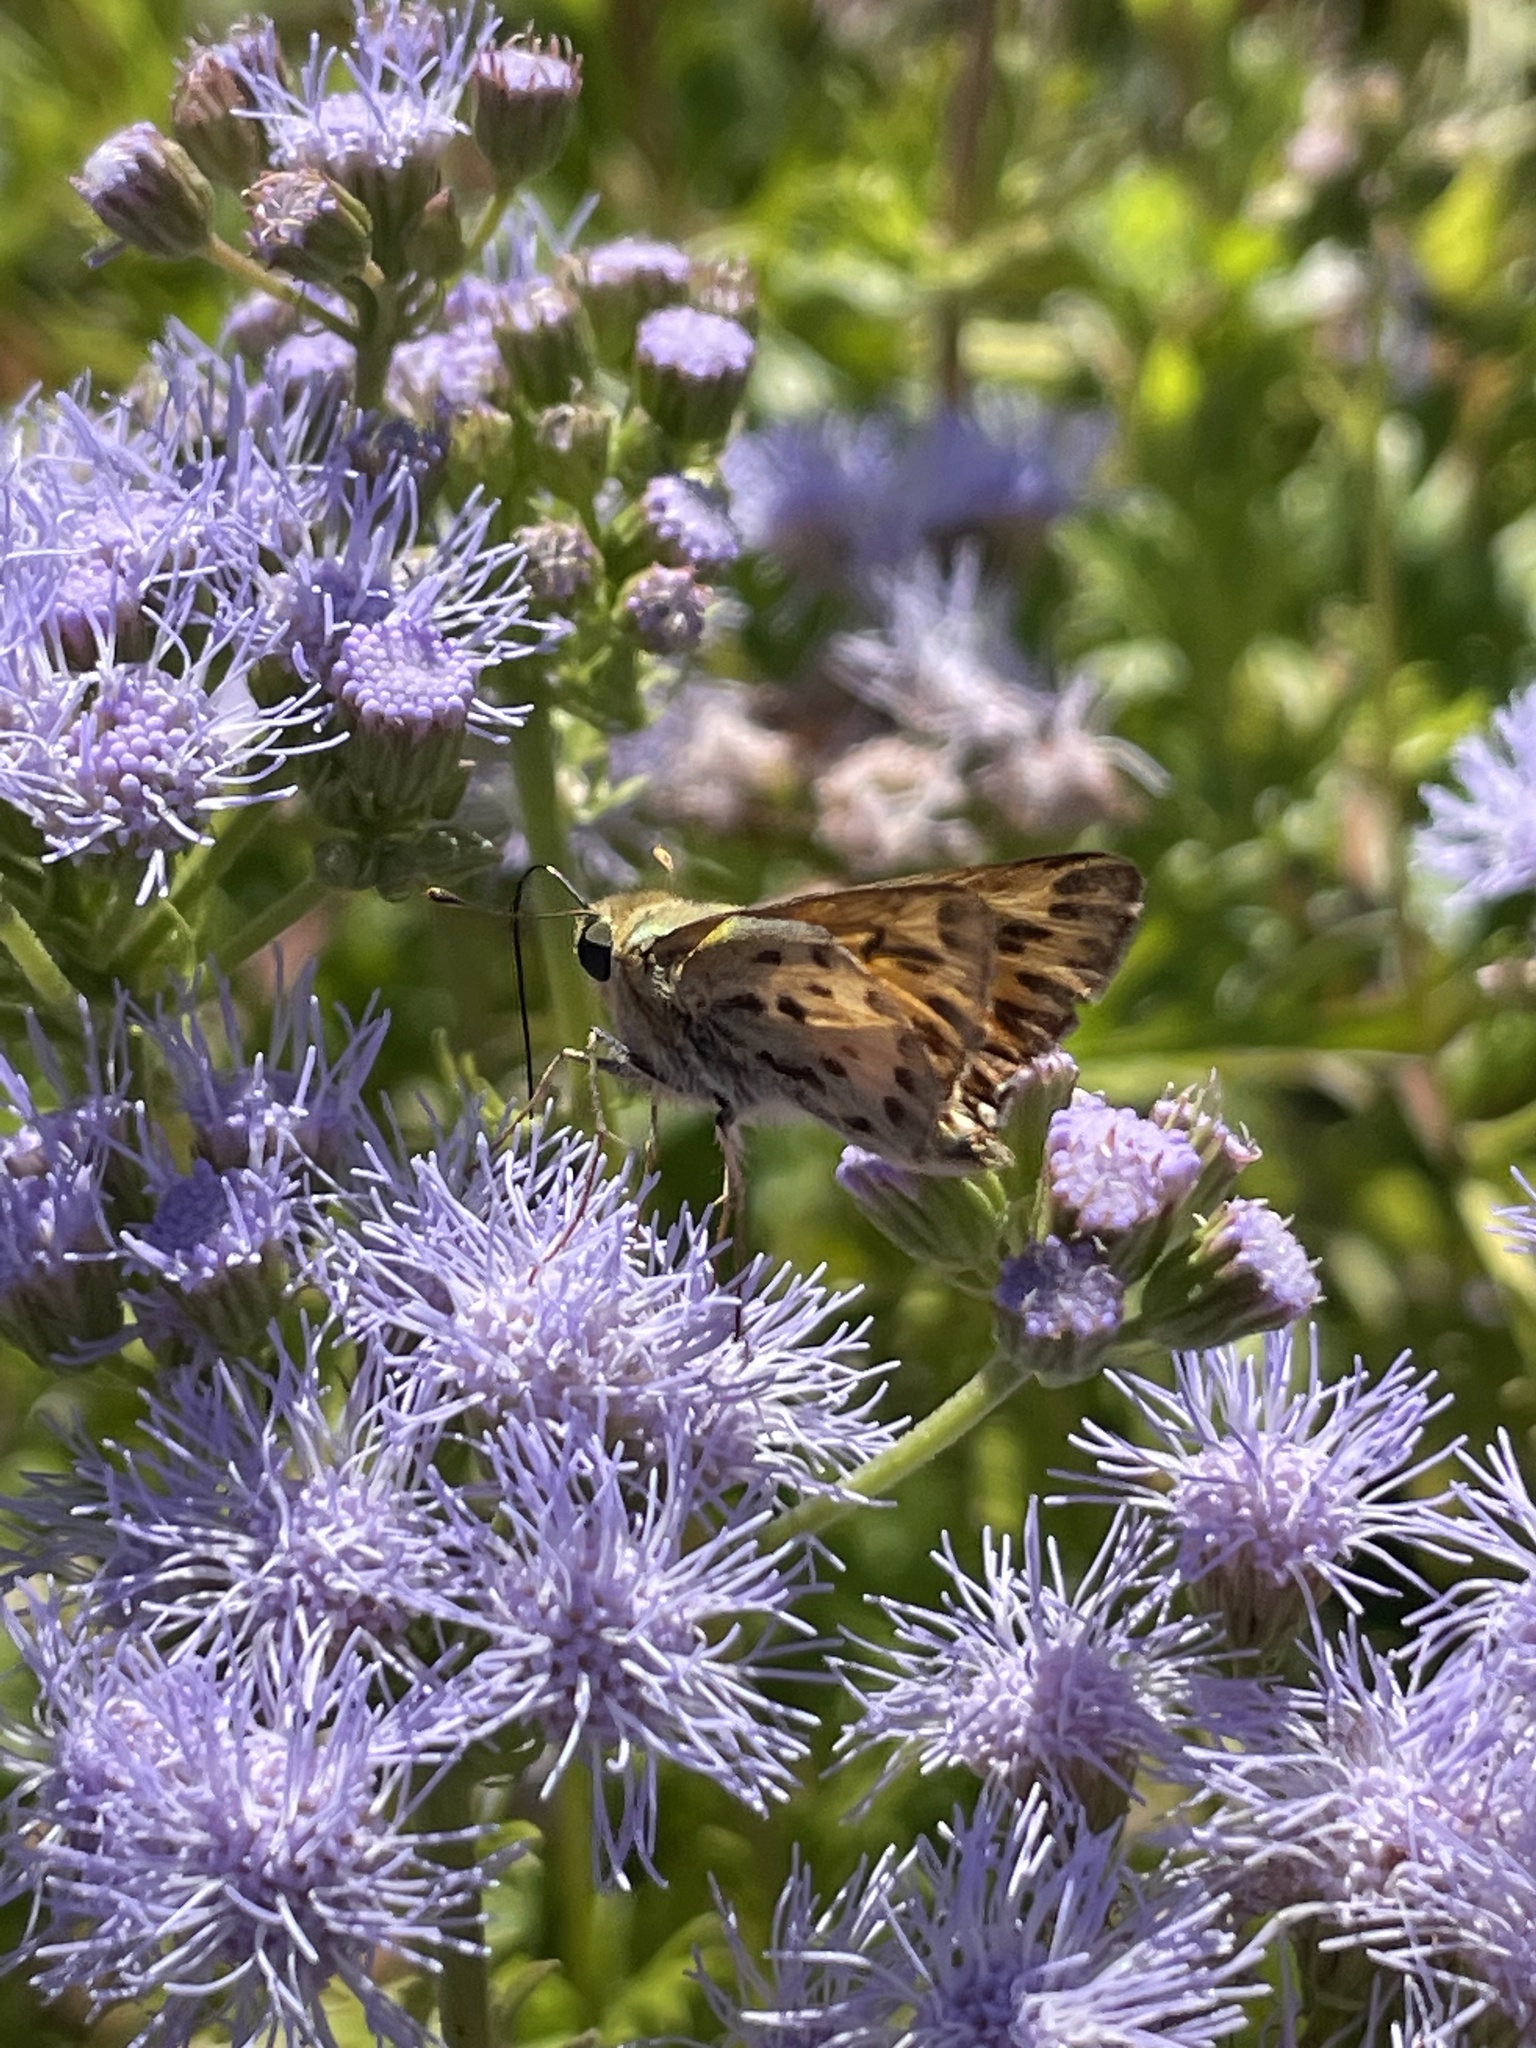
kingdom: Animalia
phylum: Arthropoda
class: Insecta
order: Lepidoptera
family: Hesperiidae
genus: Hylephila
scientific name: Hylephila phyleus
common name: Fiery skipper
